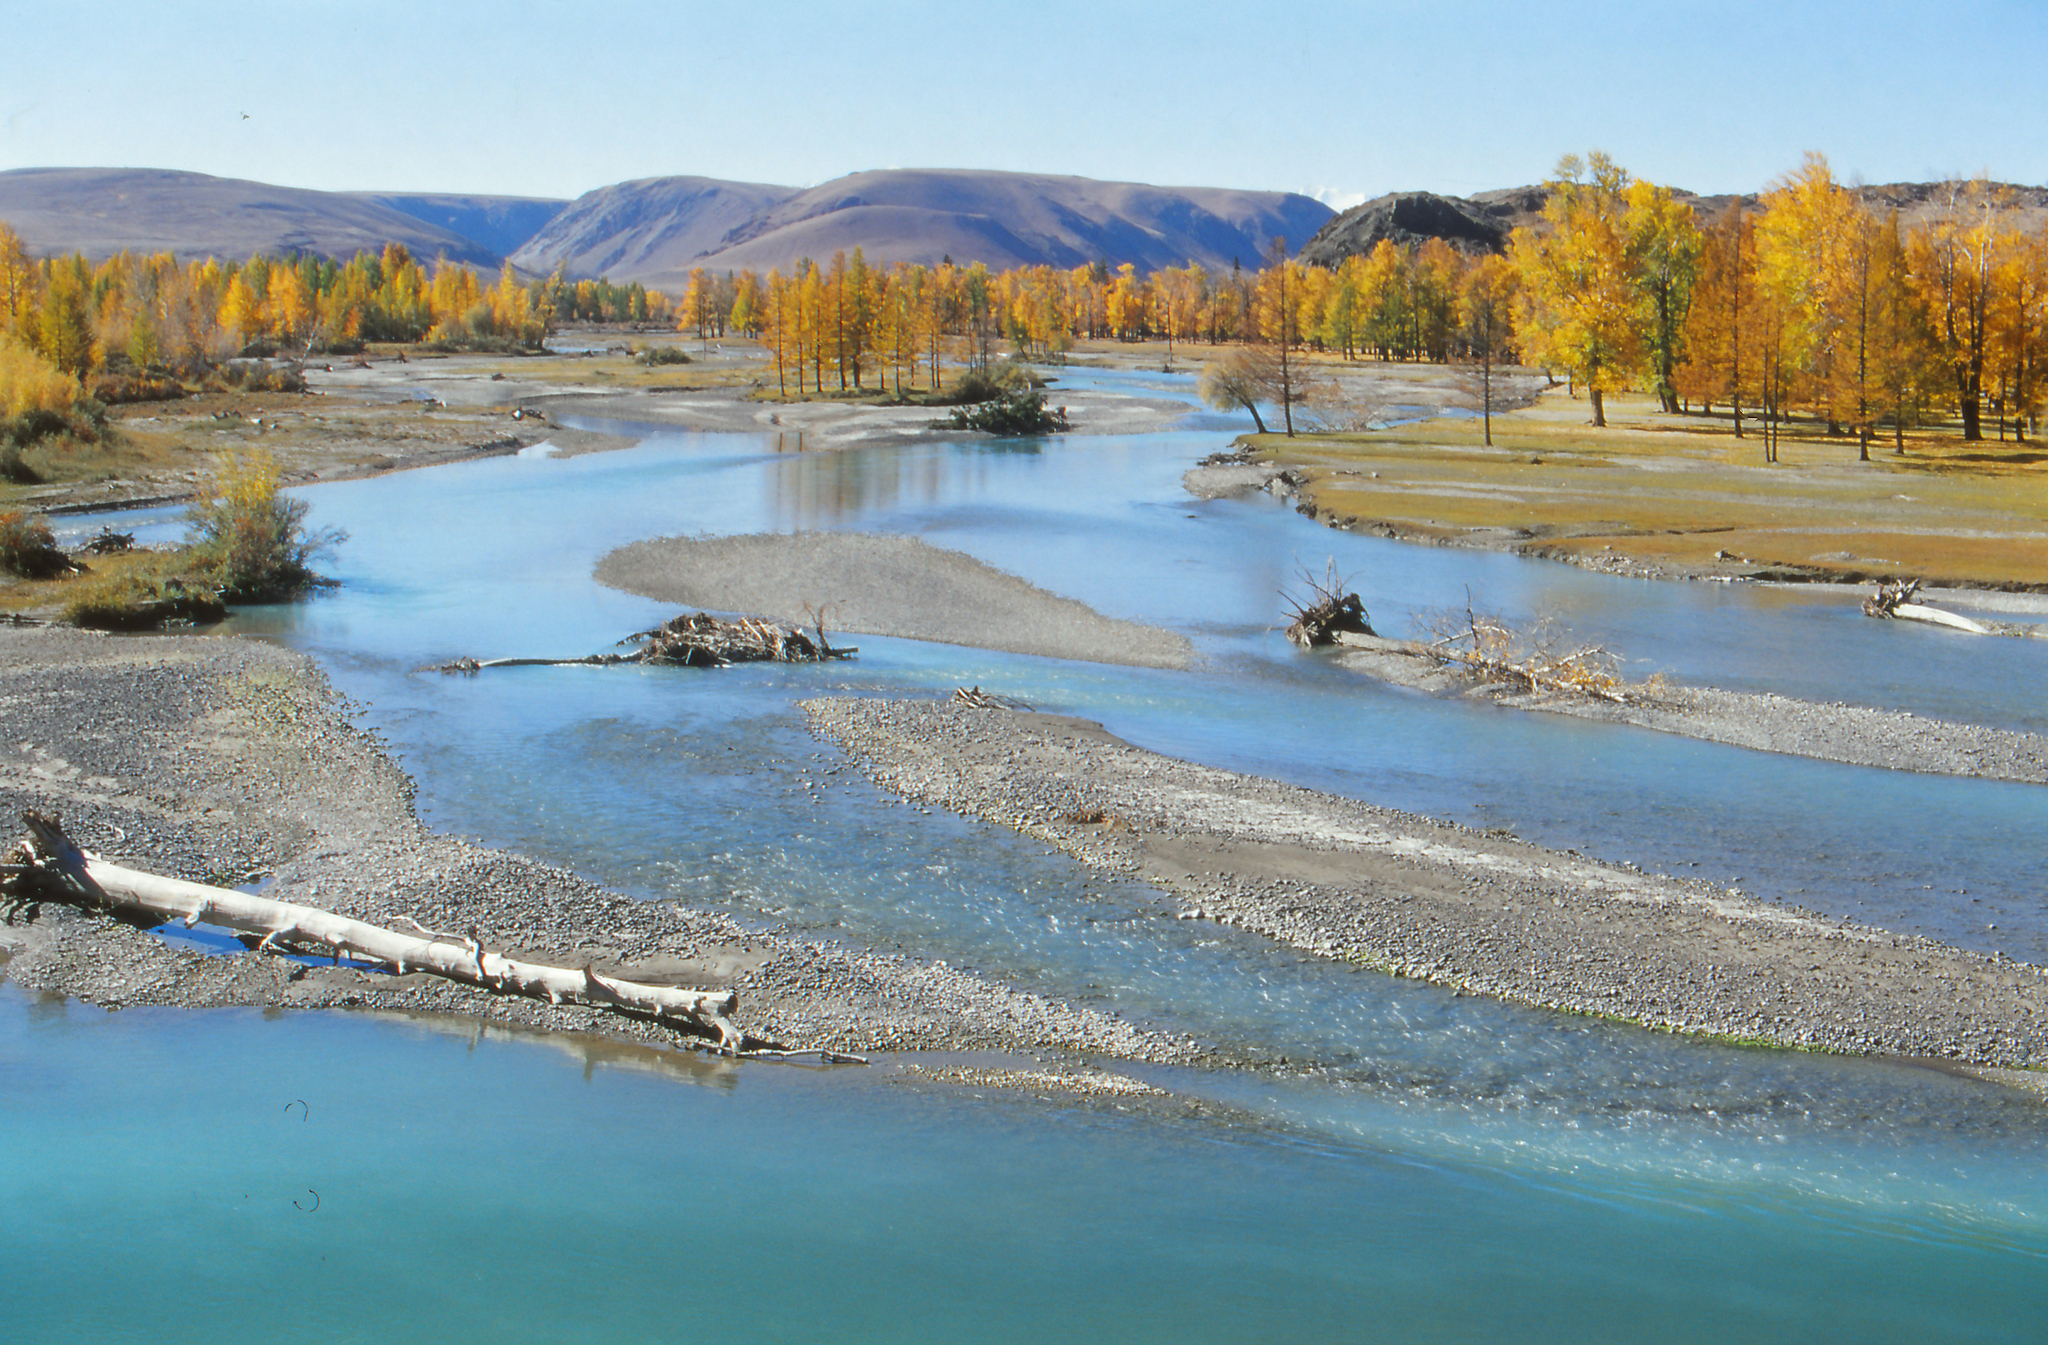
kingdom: Plantae
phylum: Tracheophyta
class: Pinopsida
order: Pinales
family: Pinaceae
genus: Larix
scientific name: Larix sibirica
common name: Siberian larch
